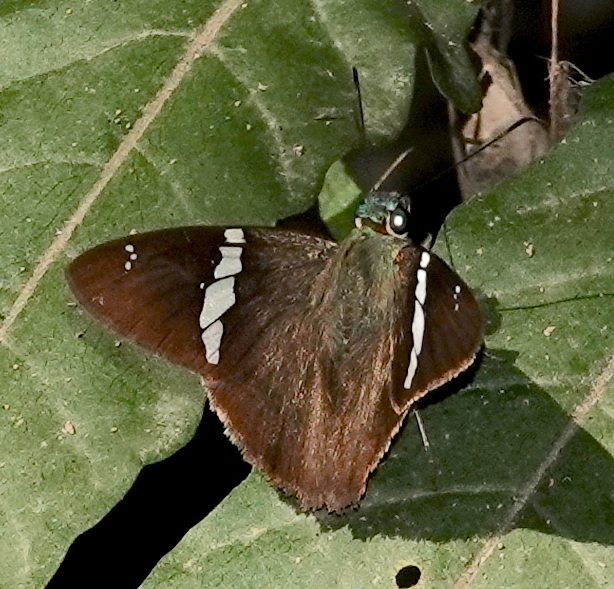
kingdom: Animalia
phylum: Arthropoda
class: Insecta
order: Lepidoptera
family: Hesperiidae
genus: Autochton
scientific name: Autochton neis
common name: Broad-banded skipper
